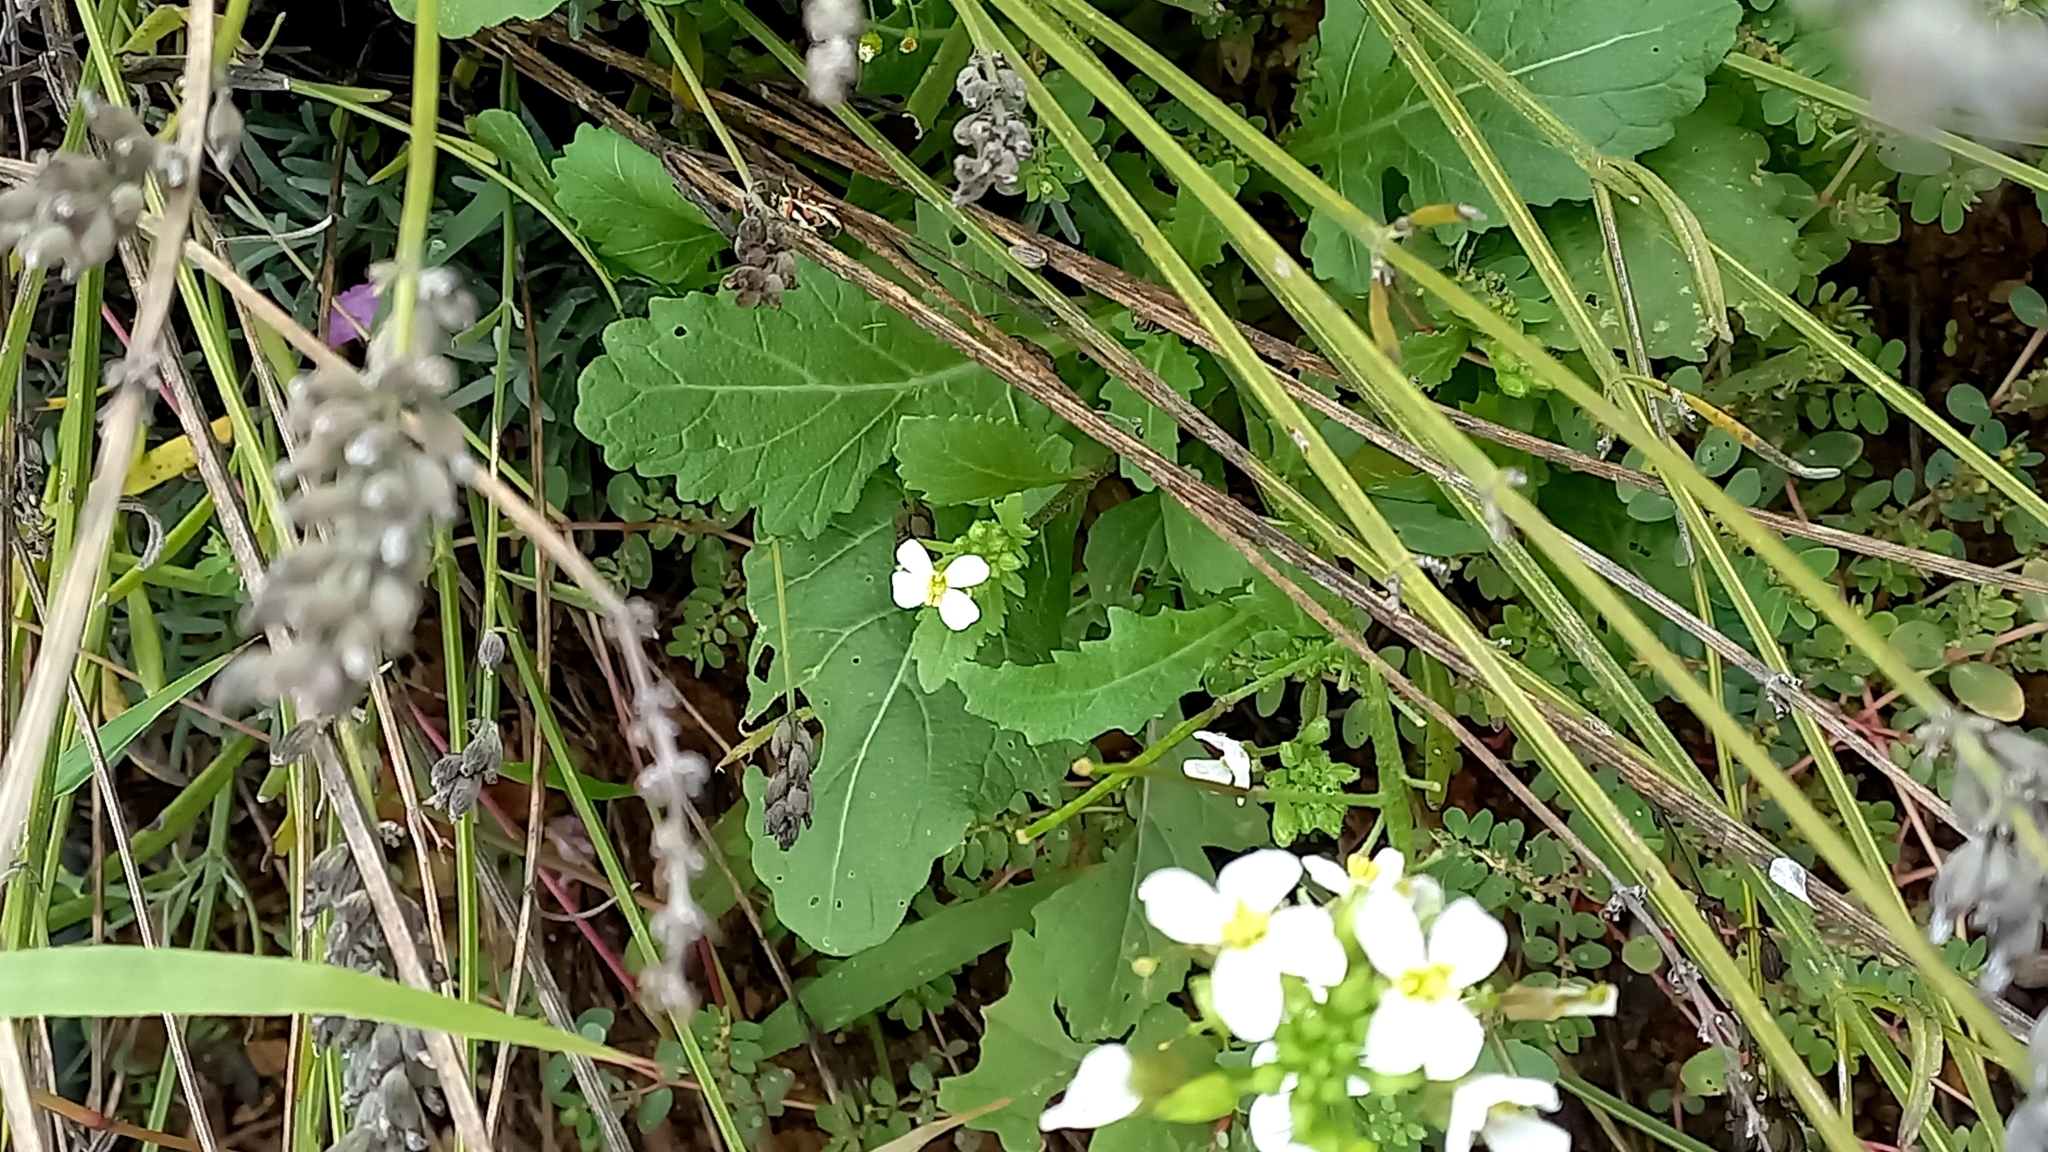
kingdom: Plantae
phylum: Tracheophyta
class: Magnoliopsida
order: Brassicales
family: Brassicaceae
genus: Diplotaxis
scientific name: Diplotaxis erucoides
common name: White rocket
